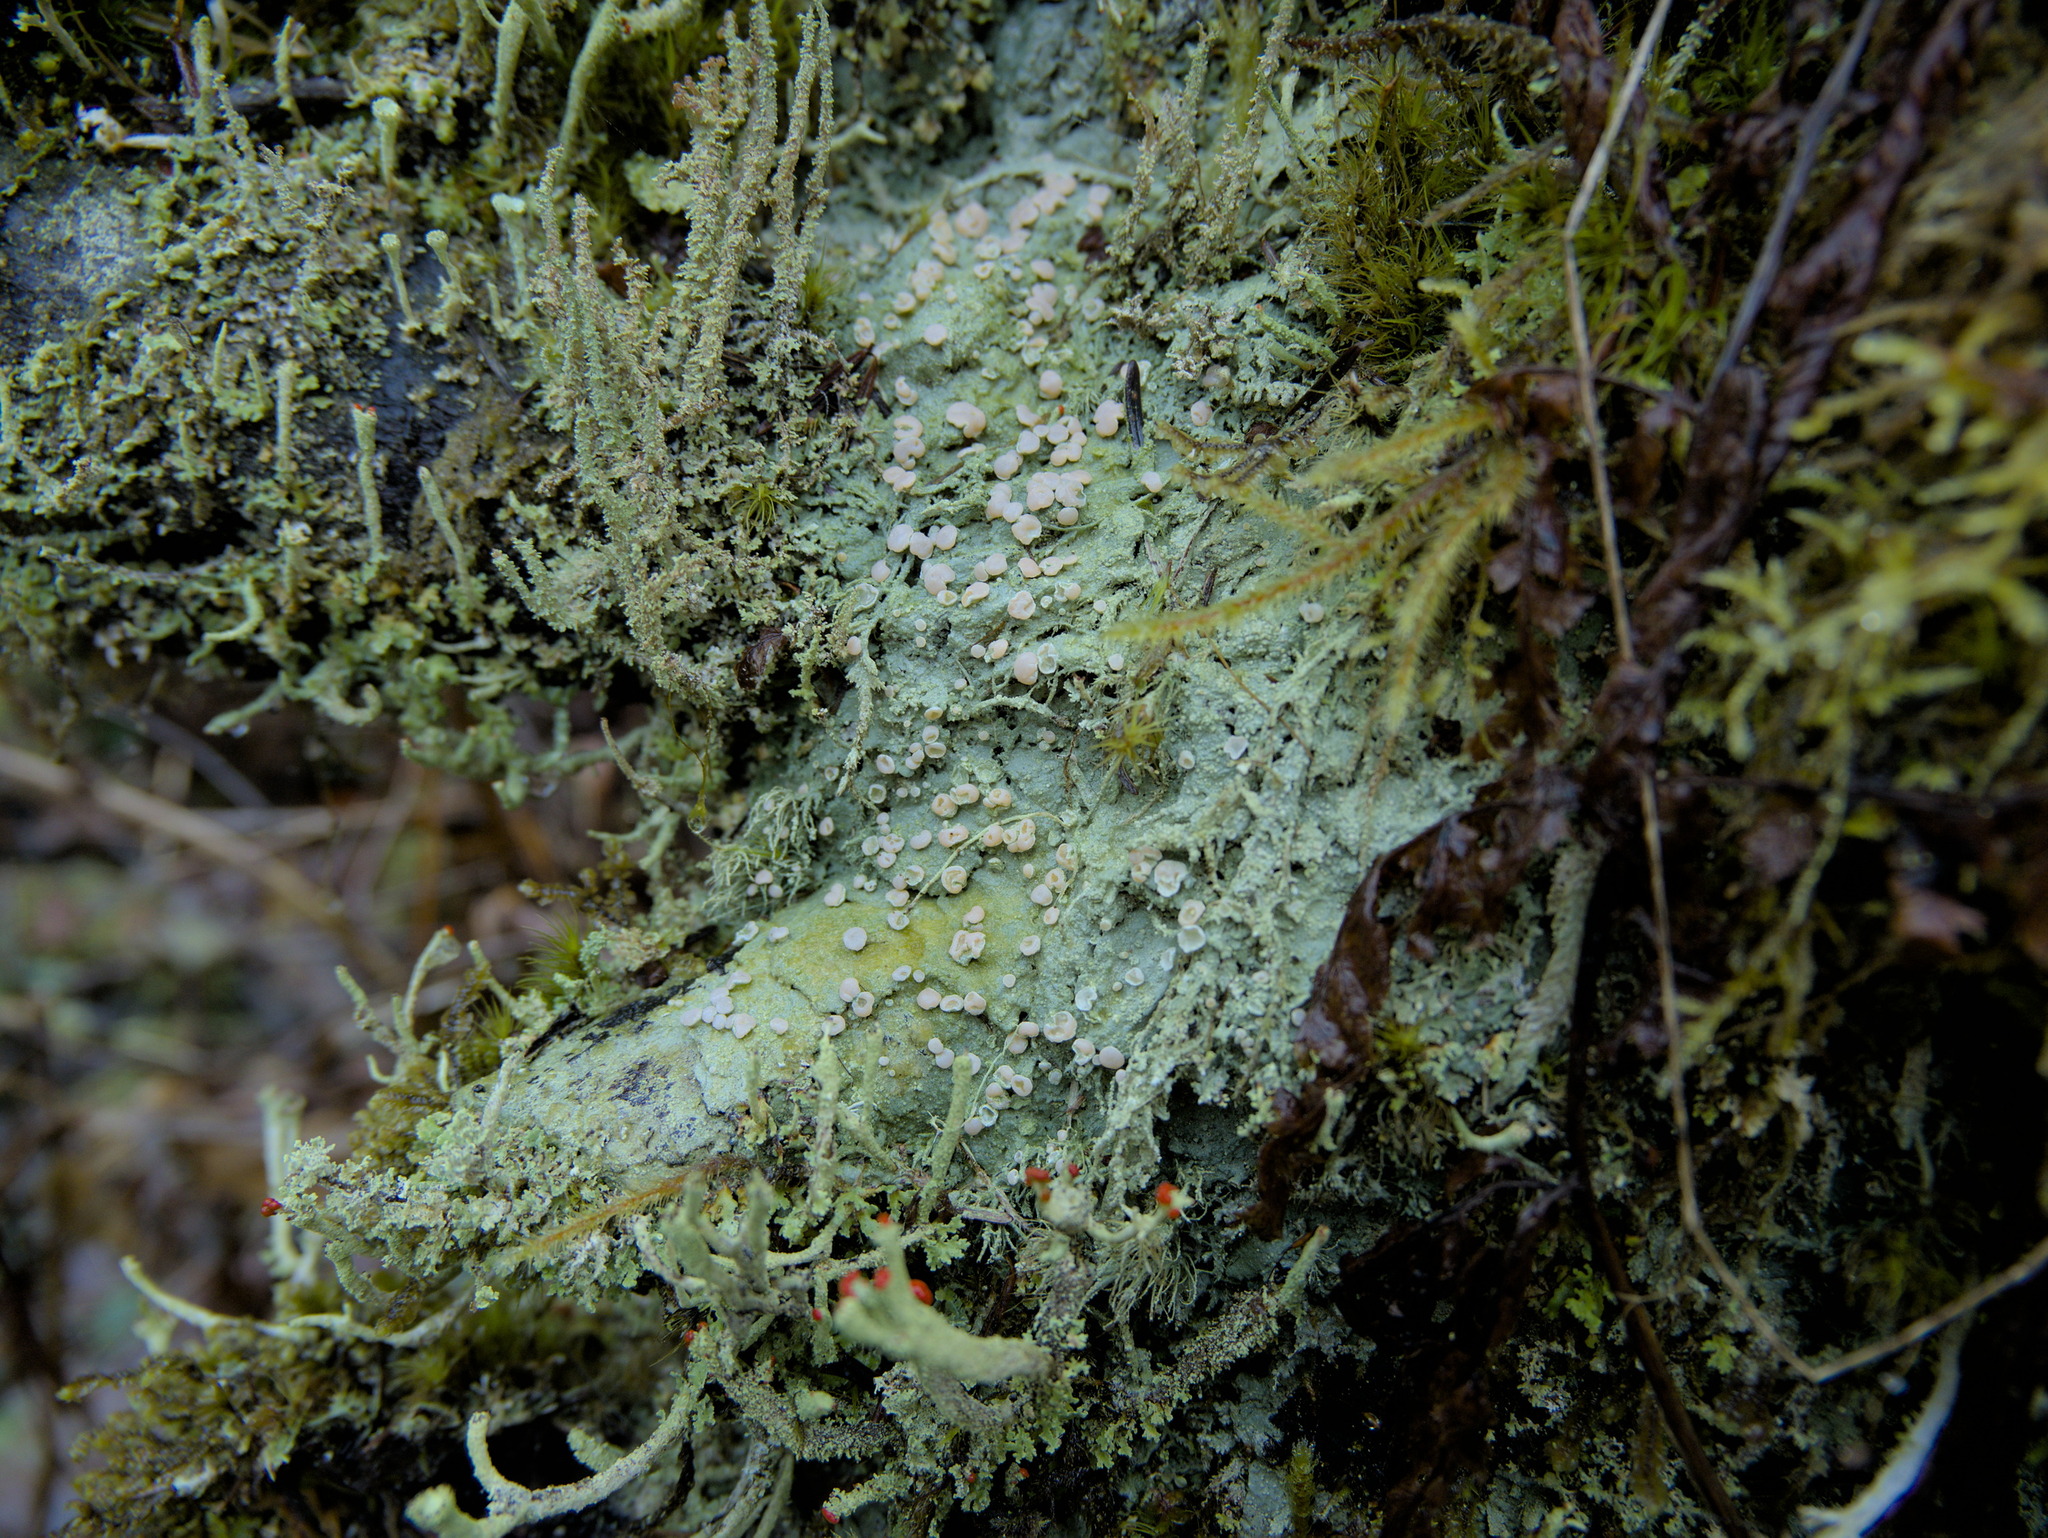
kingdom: Fungi
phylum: Ascomycota
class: Lecanoromycetes
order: Pertusariales
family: Icmadophilaceae
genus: Icmadophila
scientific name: Icmadophila ericetorum
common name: Candy lichen
